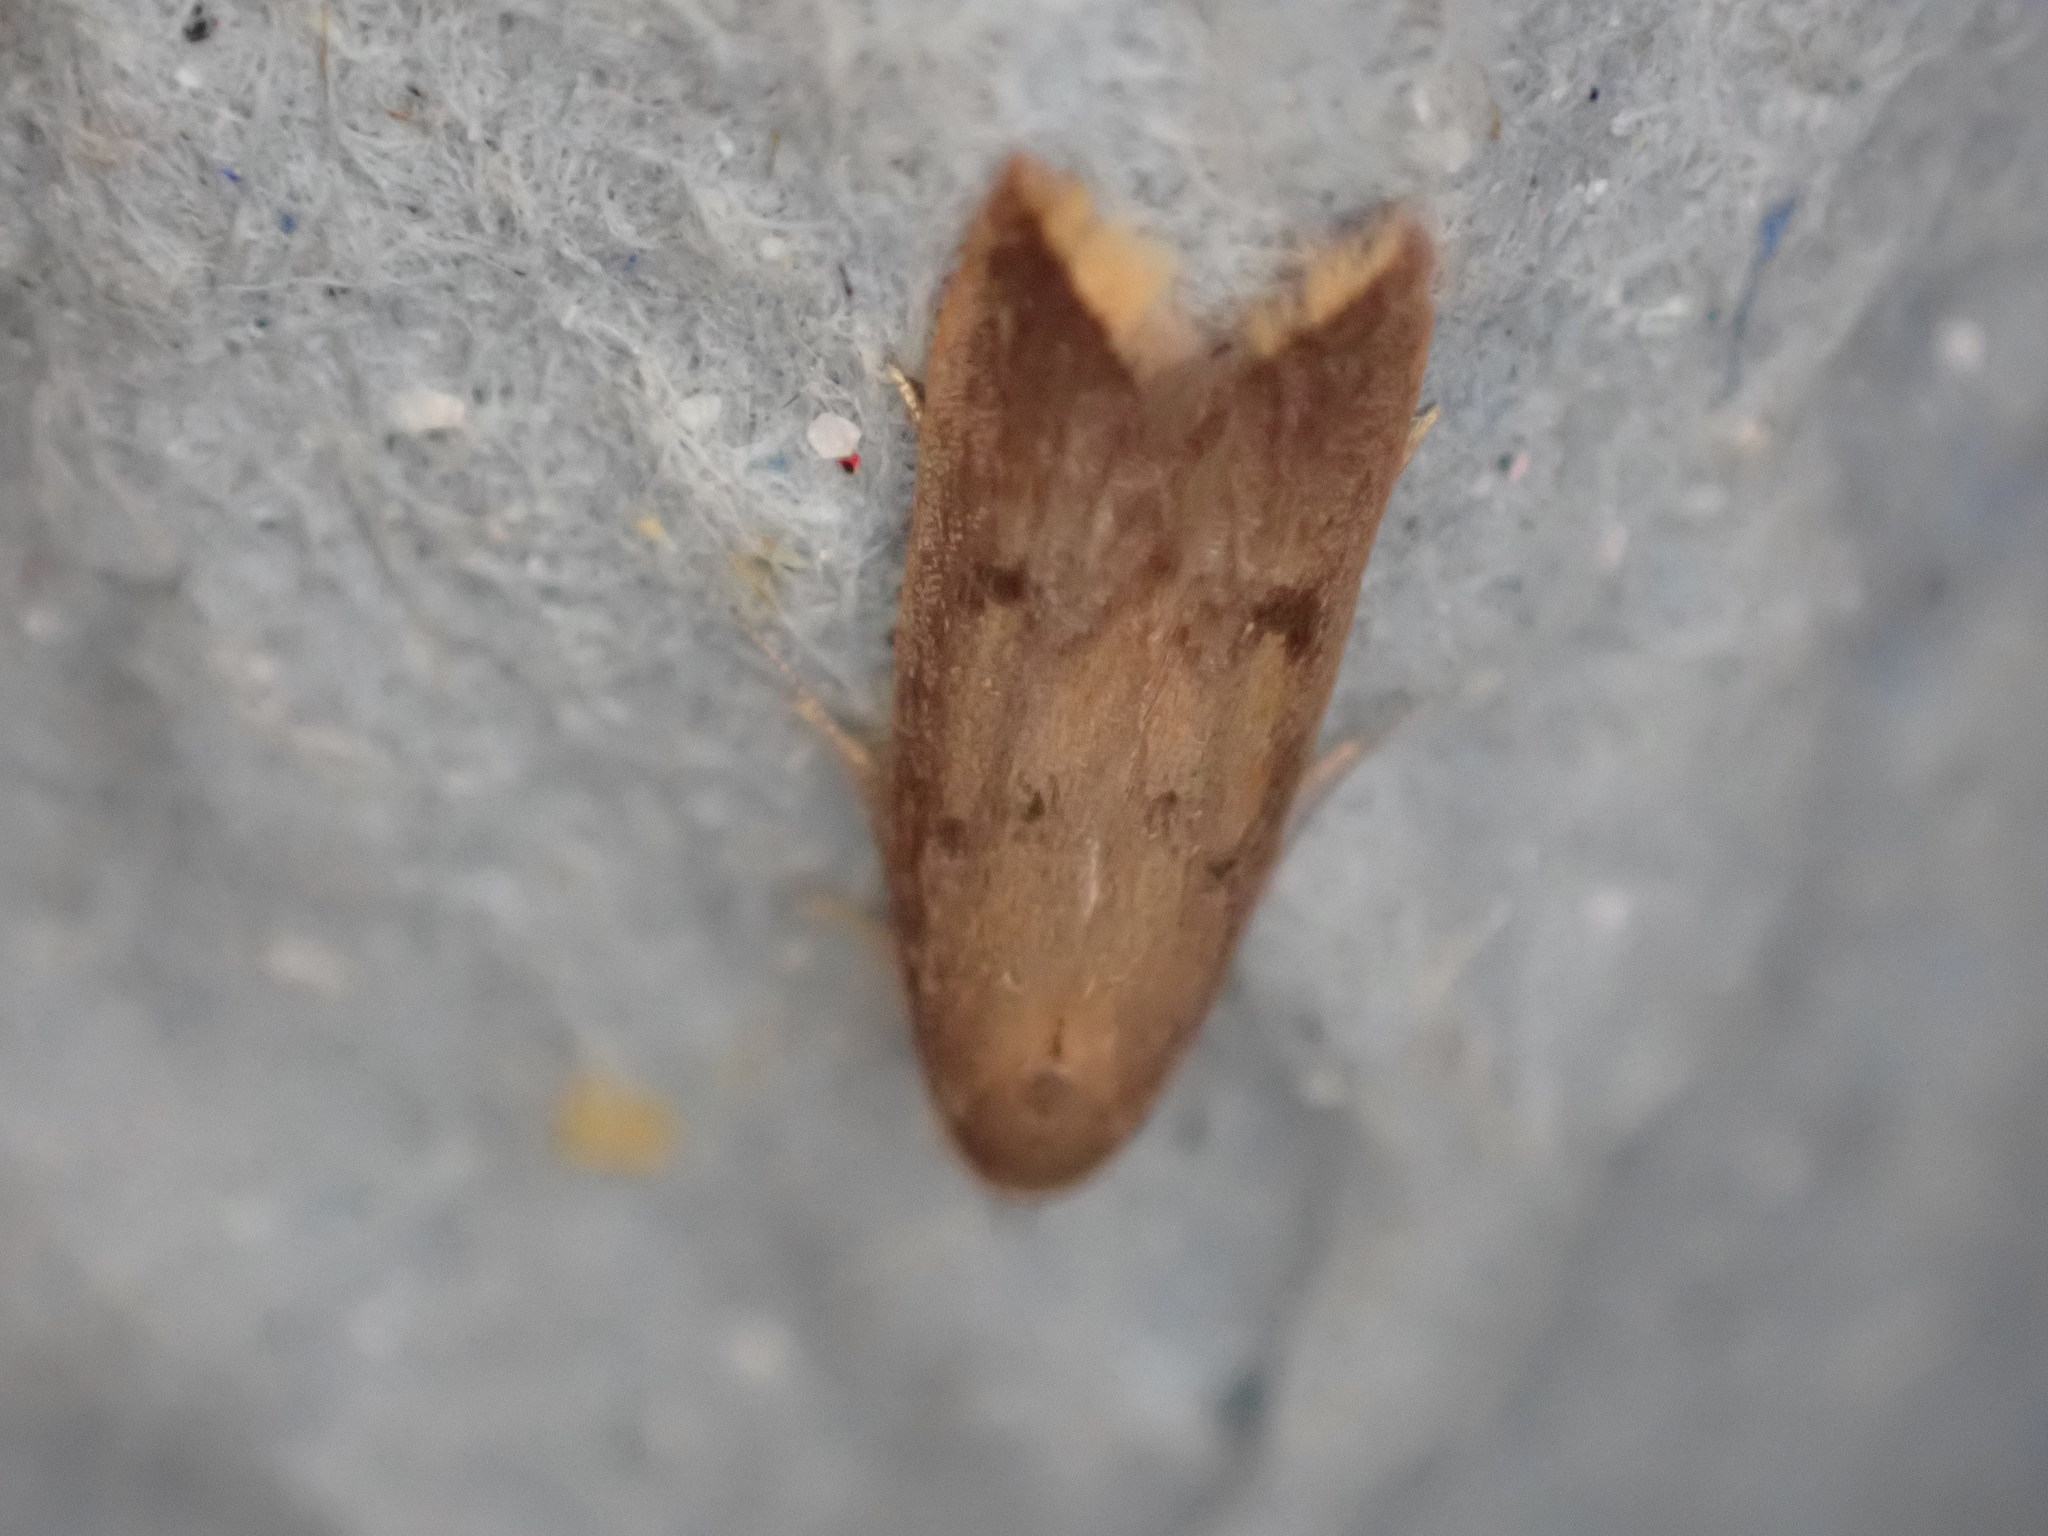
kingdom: Animalia
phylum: Arthropoda
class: Insecta
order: Lepidoptera
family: Oecophoridae
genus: Tachystola
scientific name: Tachystola acroxantha
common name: Ruddy streak
